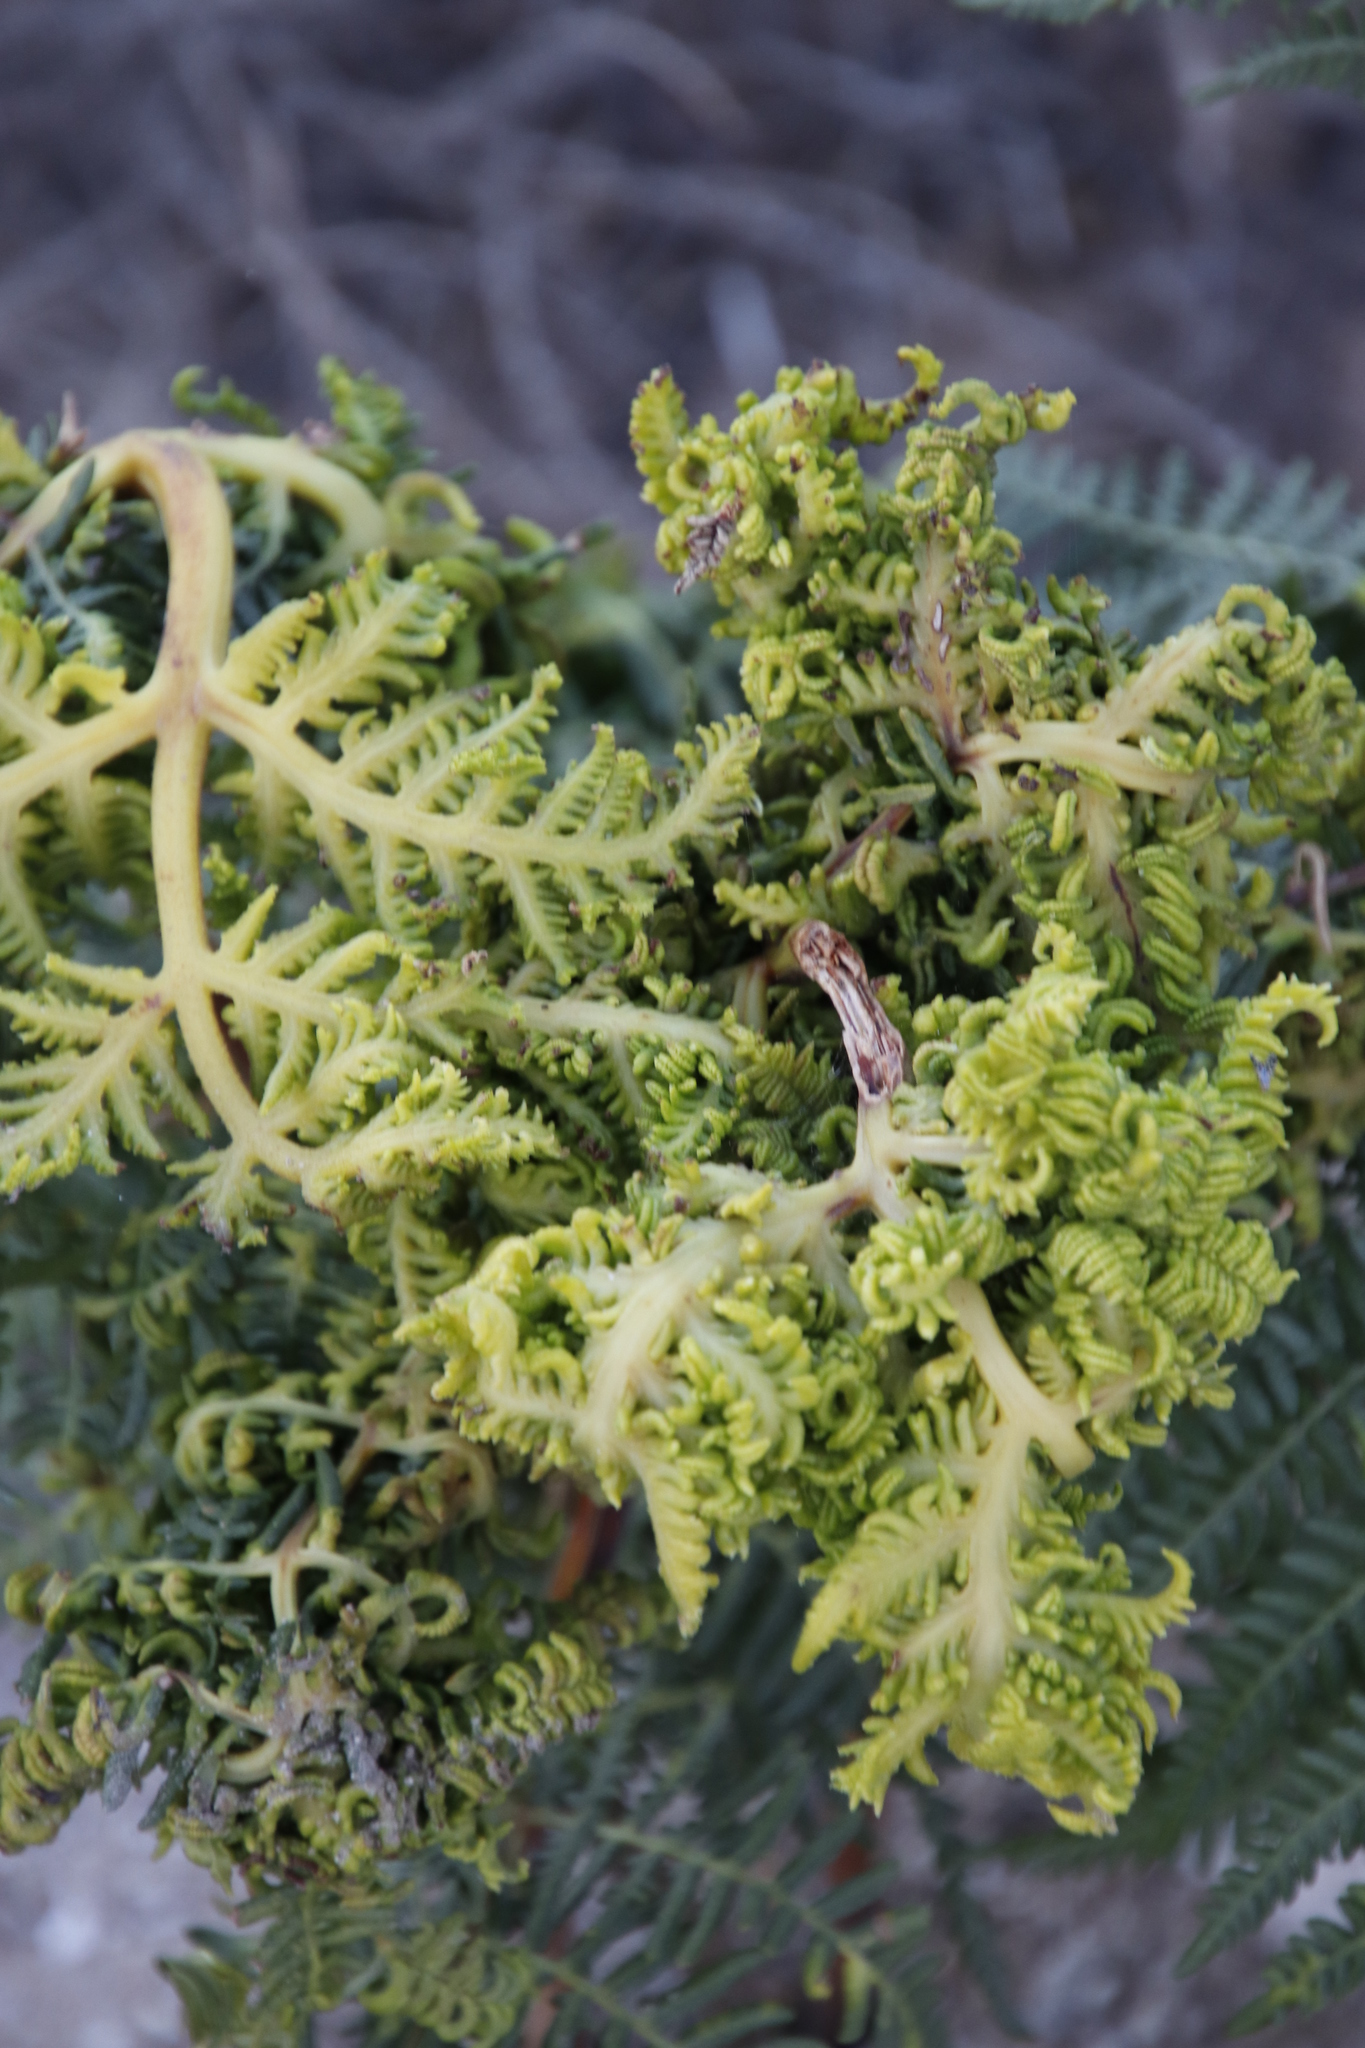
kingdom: Animalia
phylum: Arthropoda
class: Arachnida
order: Trombidiformes
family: Eriophyidae
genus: Eriophyes
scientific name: Eriophyes
